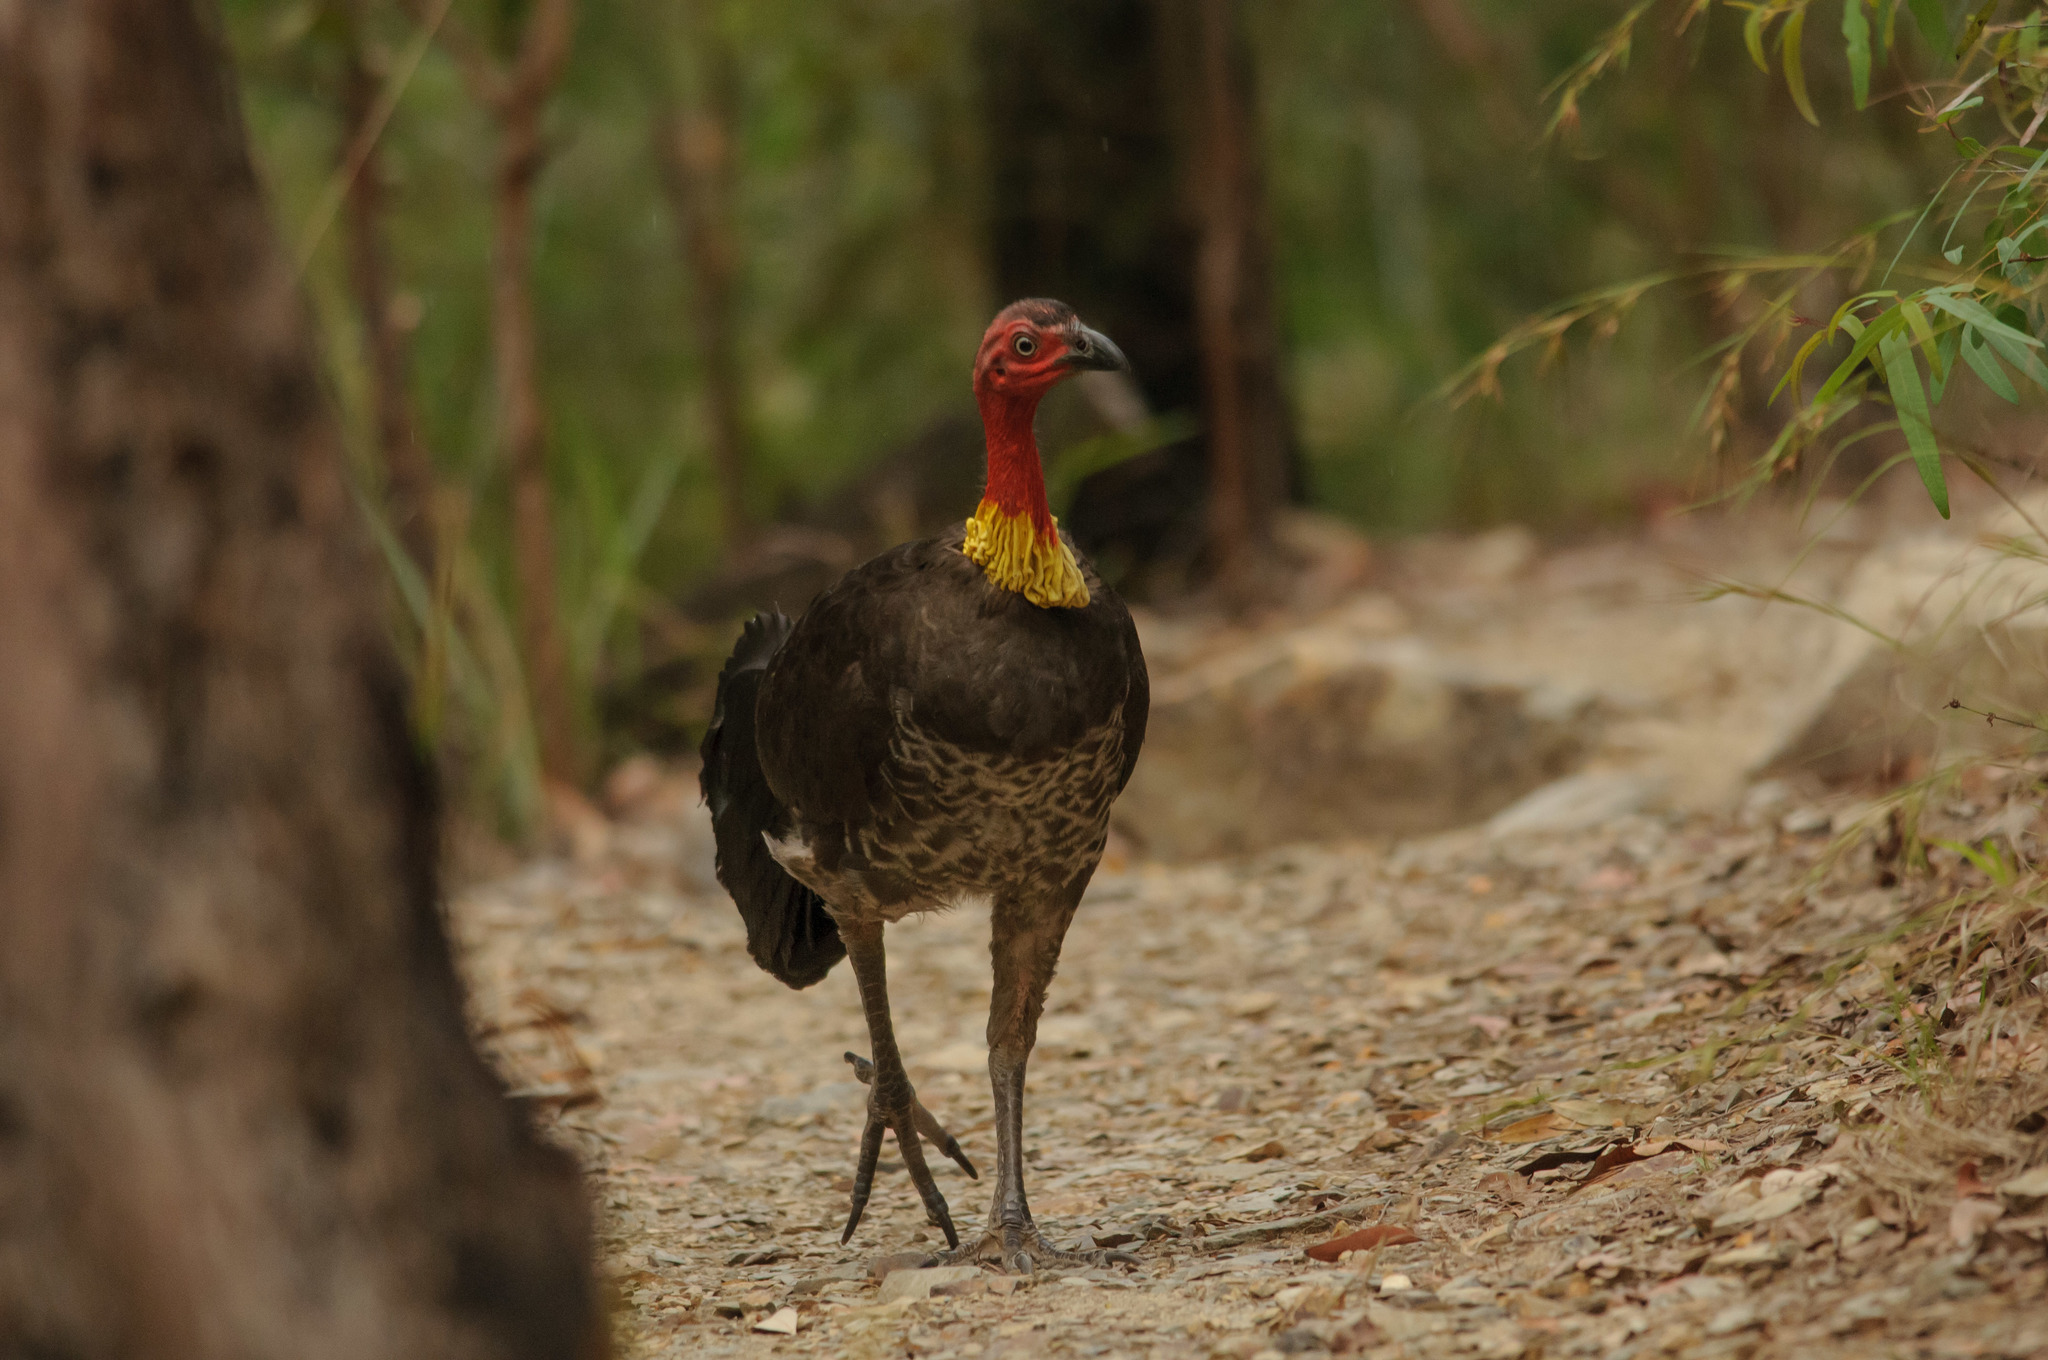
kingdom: Animalia
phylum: Chordata
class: Aves
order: Galliformes
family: Megapodiidae
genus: Alectura
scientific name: Alectura lathami
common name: Australian brushturkey
